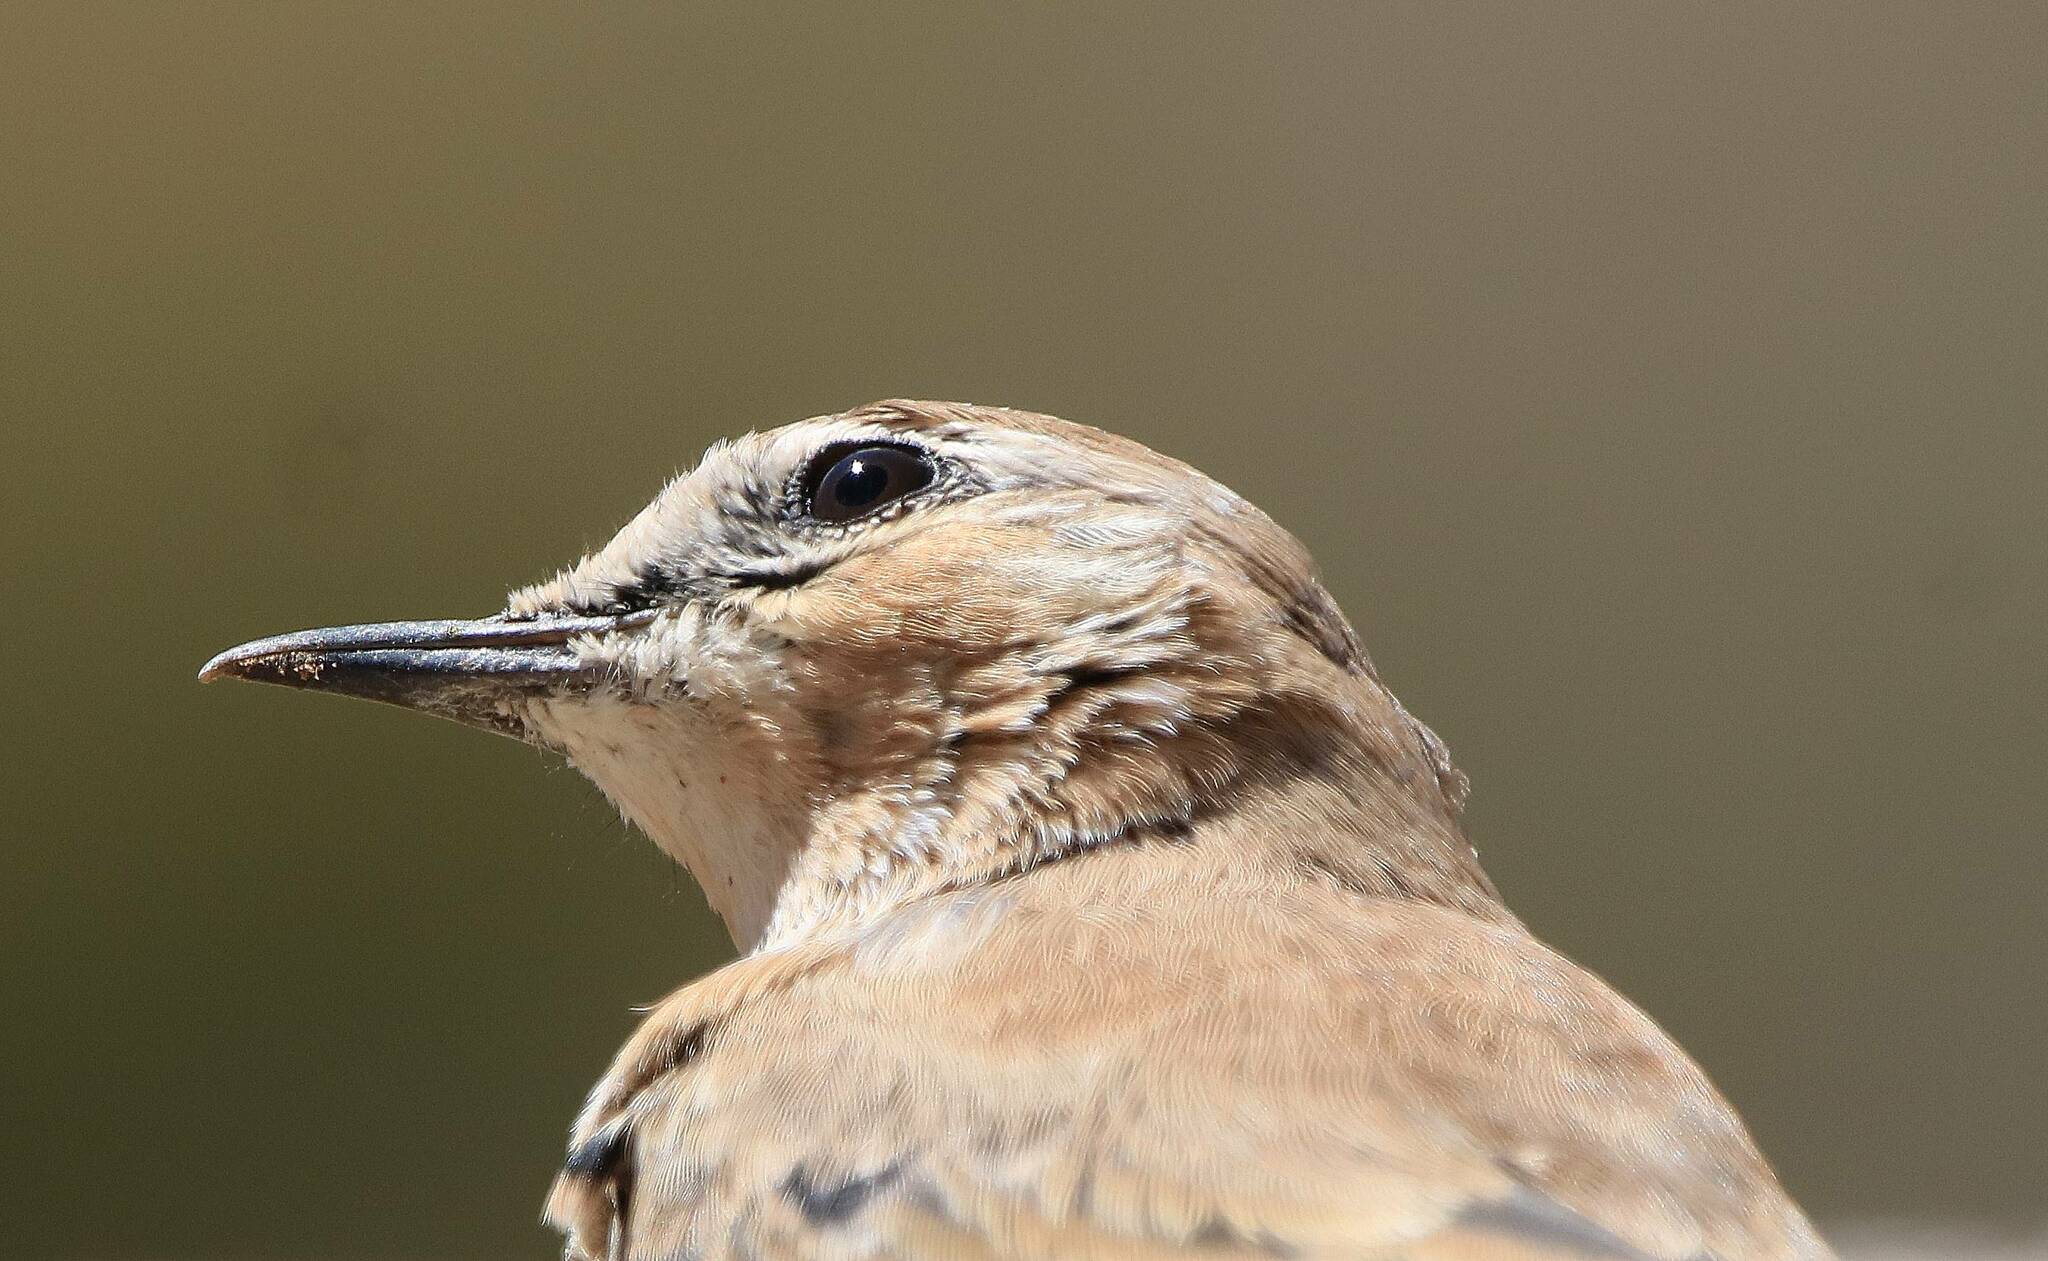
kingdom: Animalia
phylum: Chordata
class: Aves
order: Passeriformes
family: Muscicapidae
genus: Oenanthe
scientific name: Oenanthe oenanthe
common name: Northern wheatear
